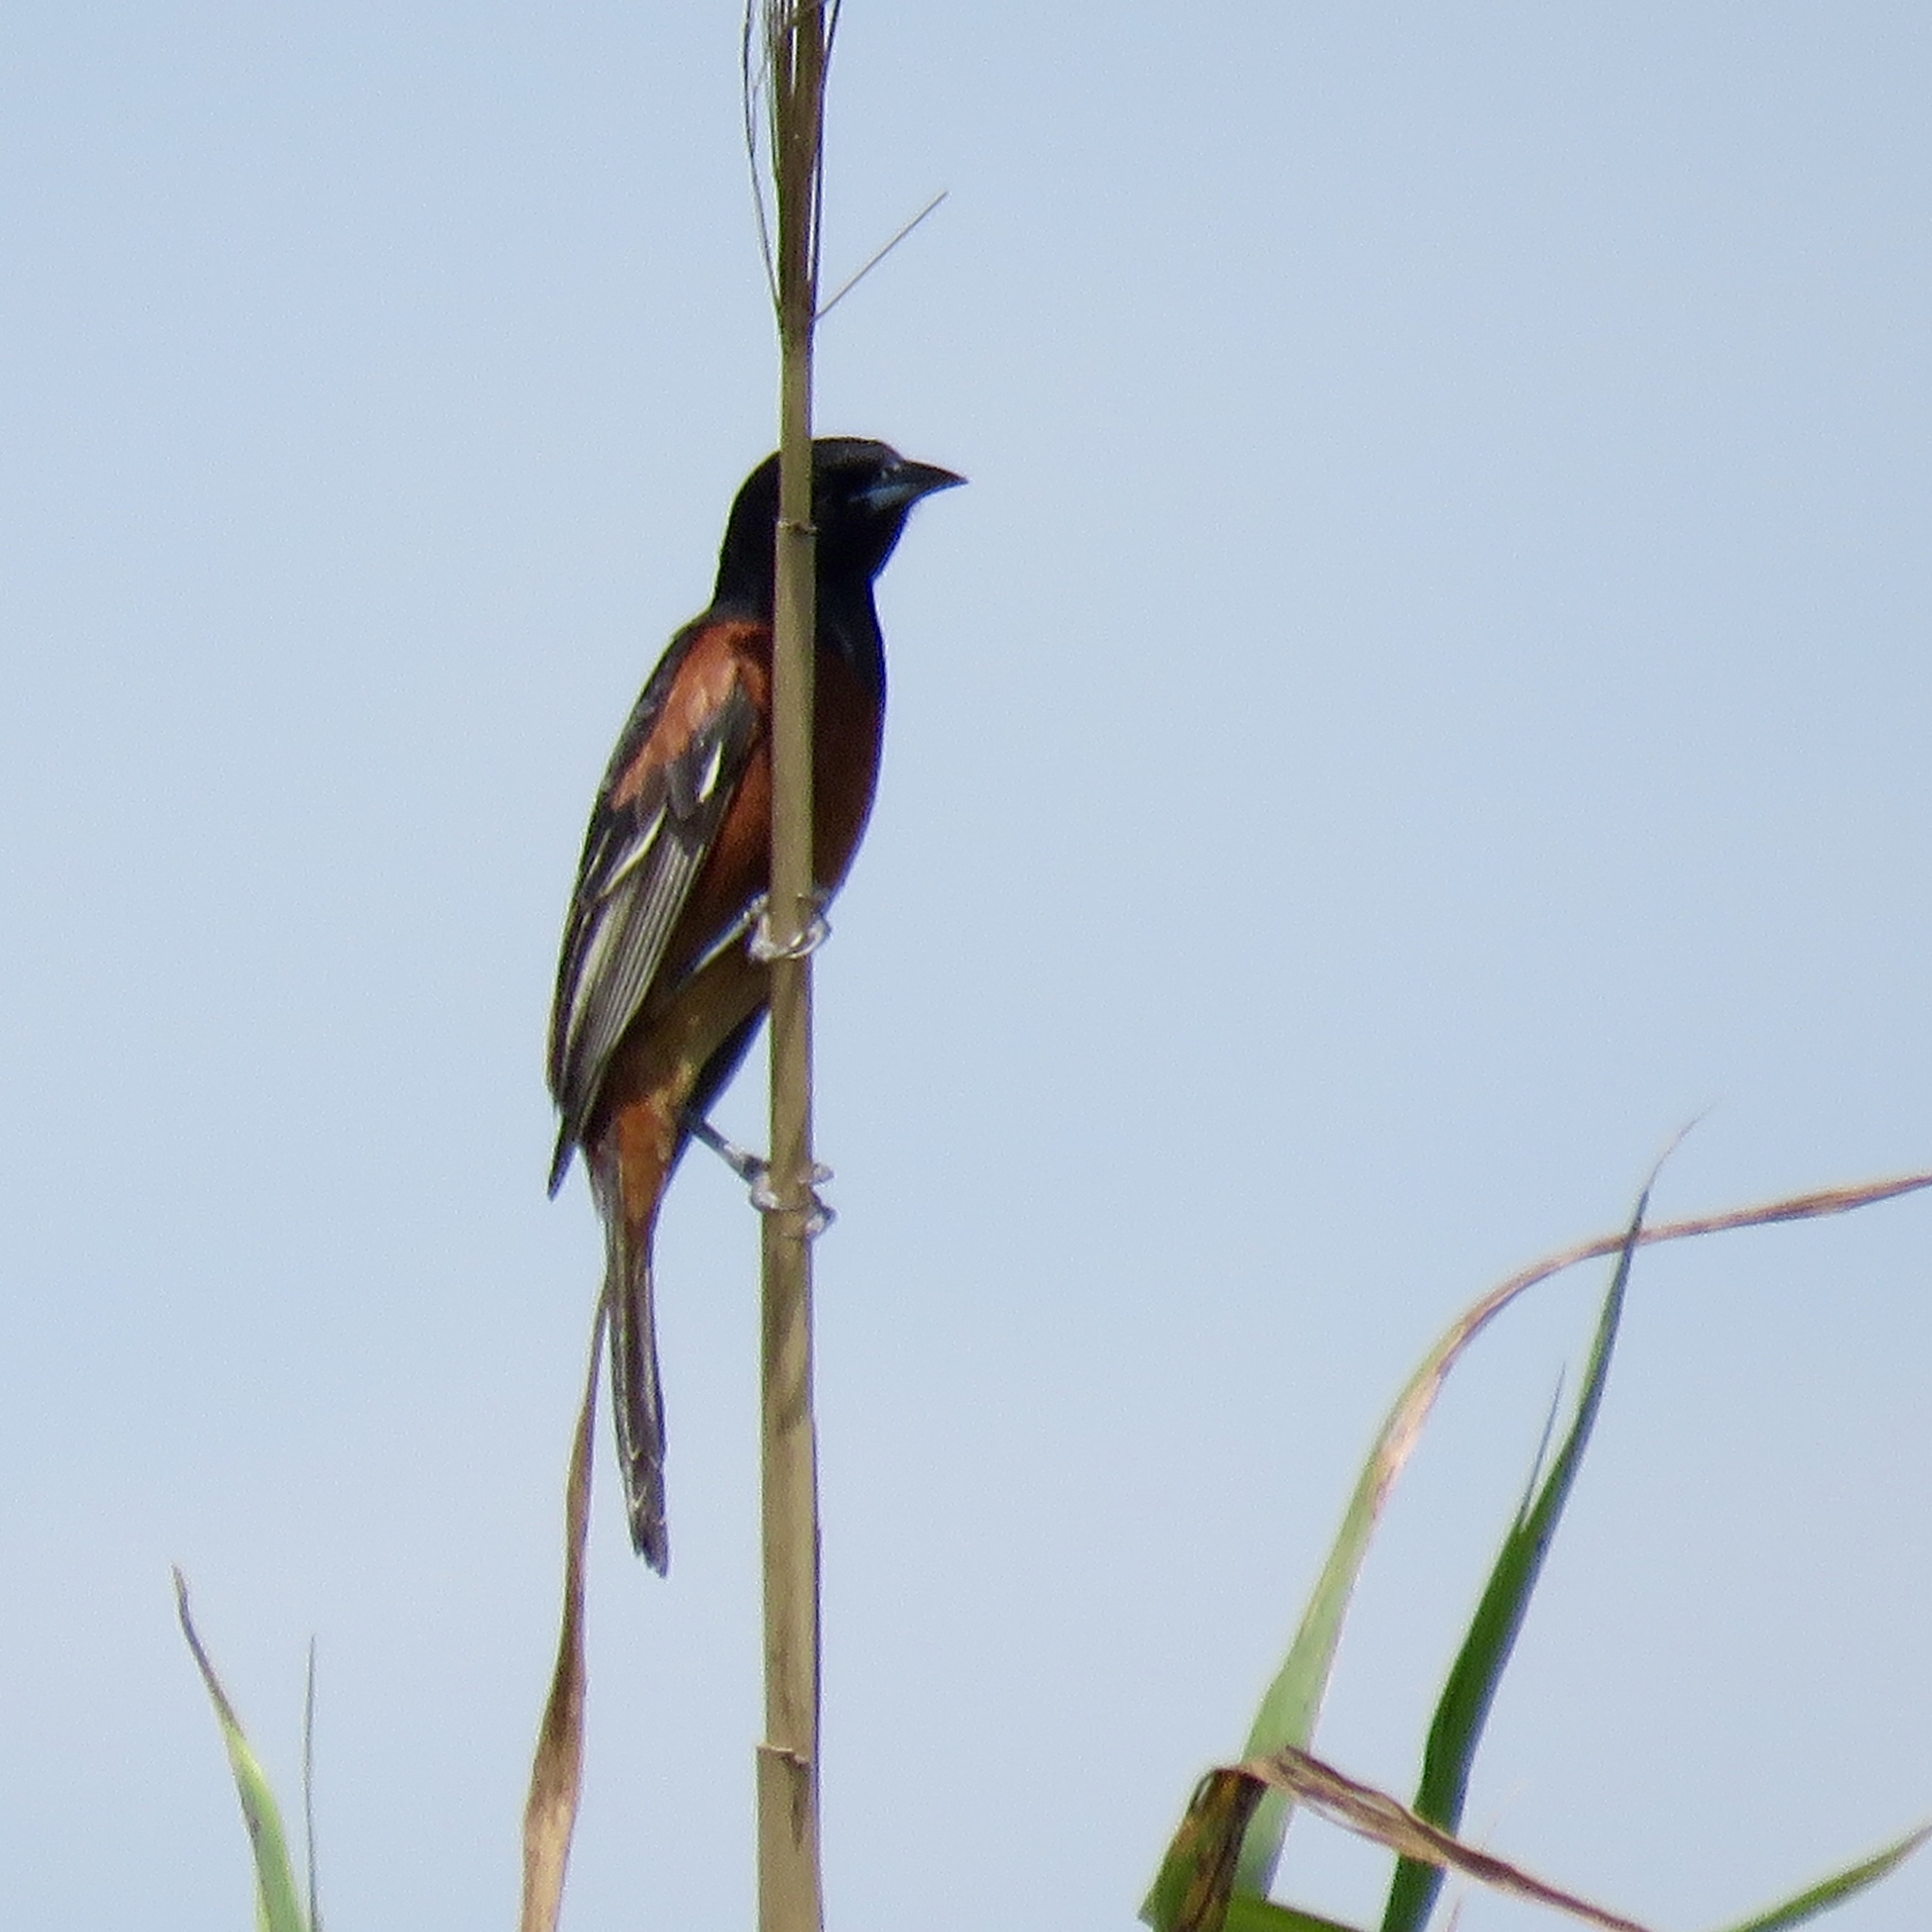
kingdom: Animalia
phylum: Chordata
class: Aves
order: Passeriformes
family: Icteridae
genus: Icterus
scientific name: Icterus spurius
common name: Orchard oriole
